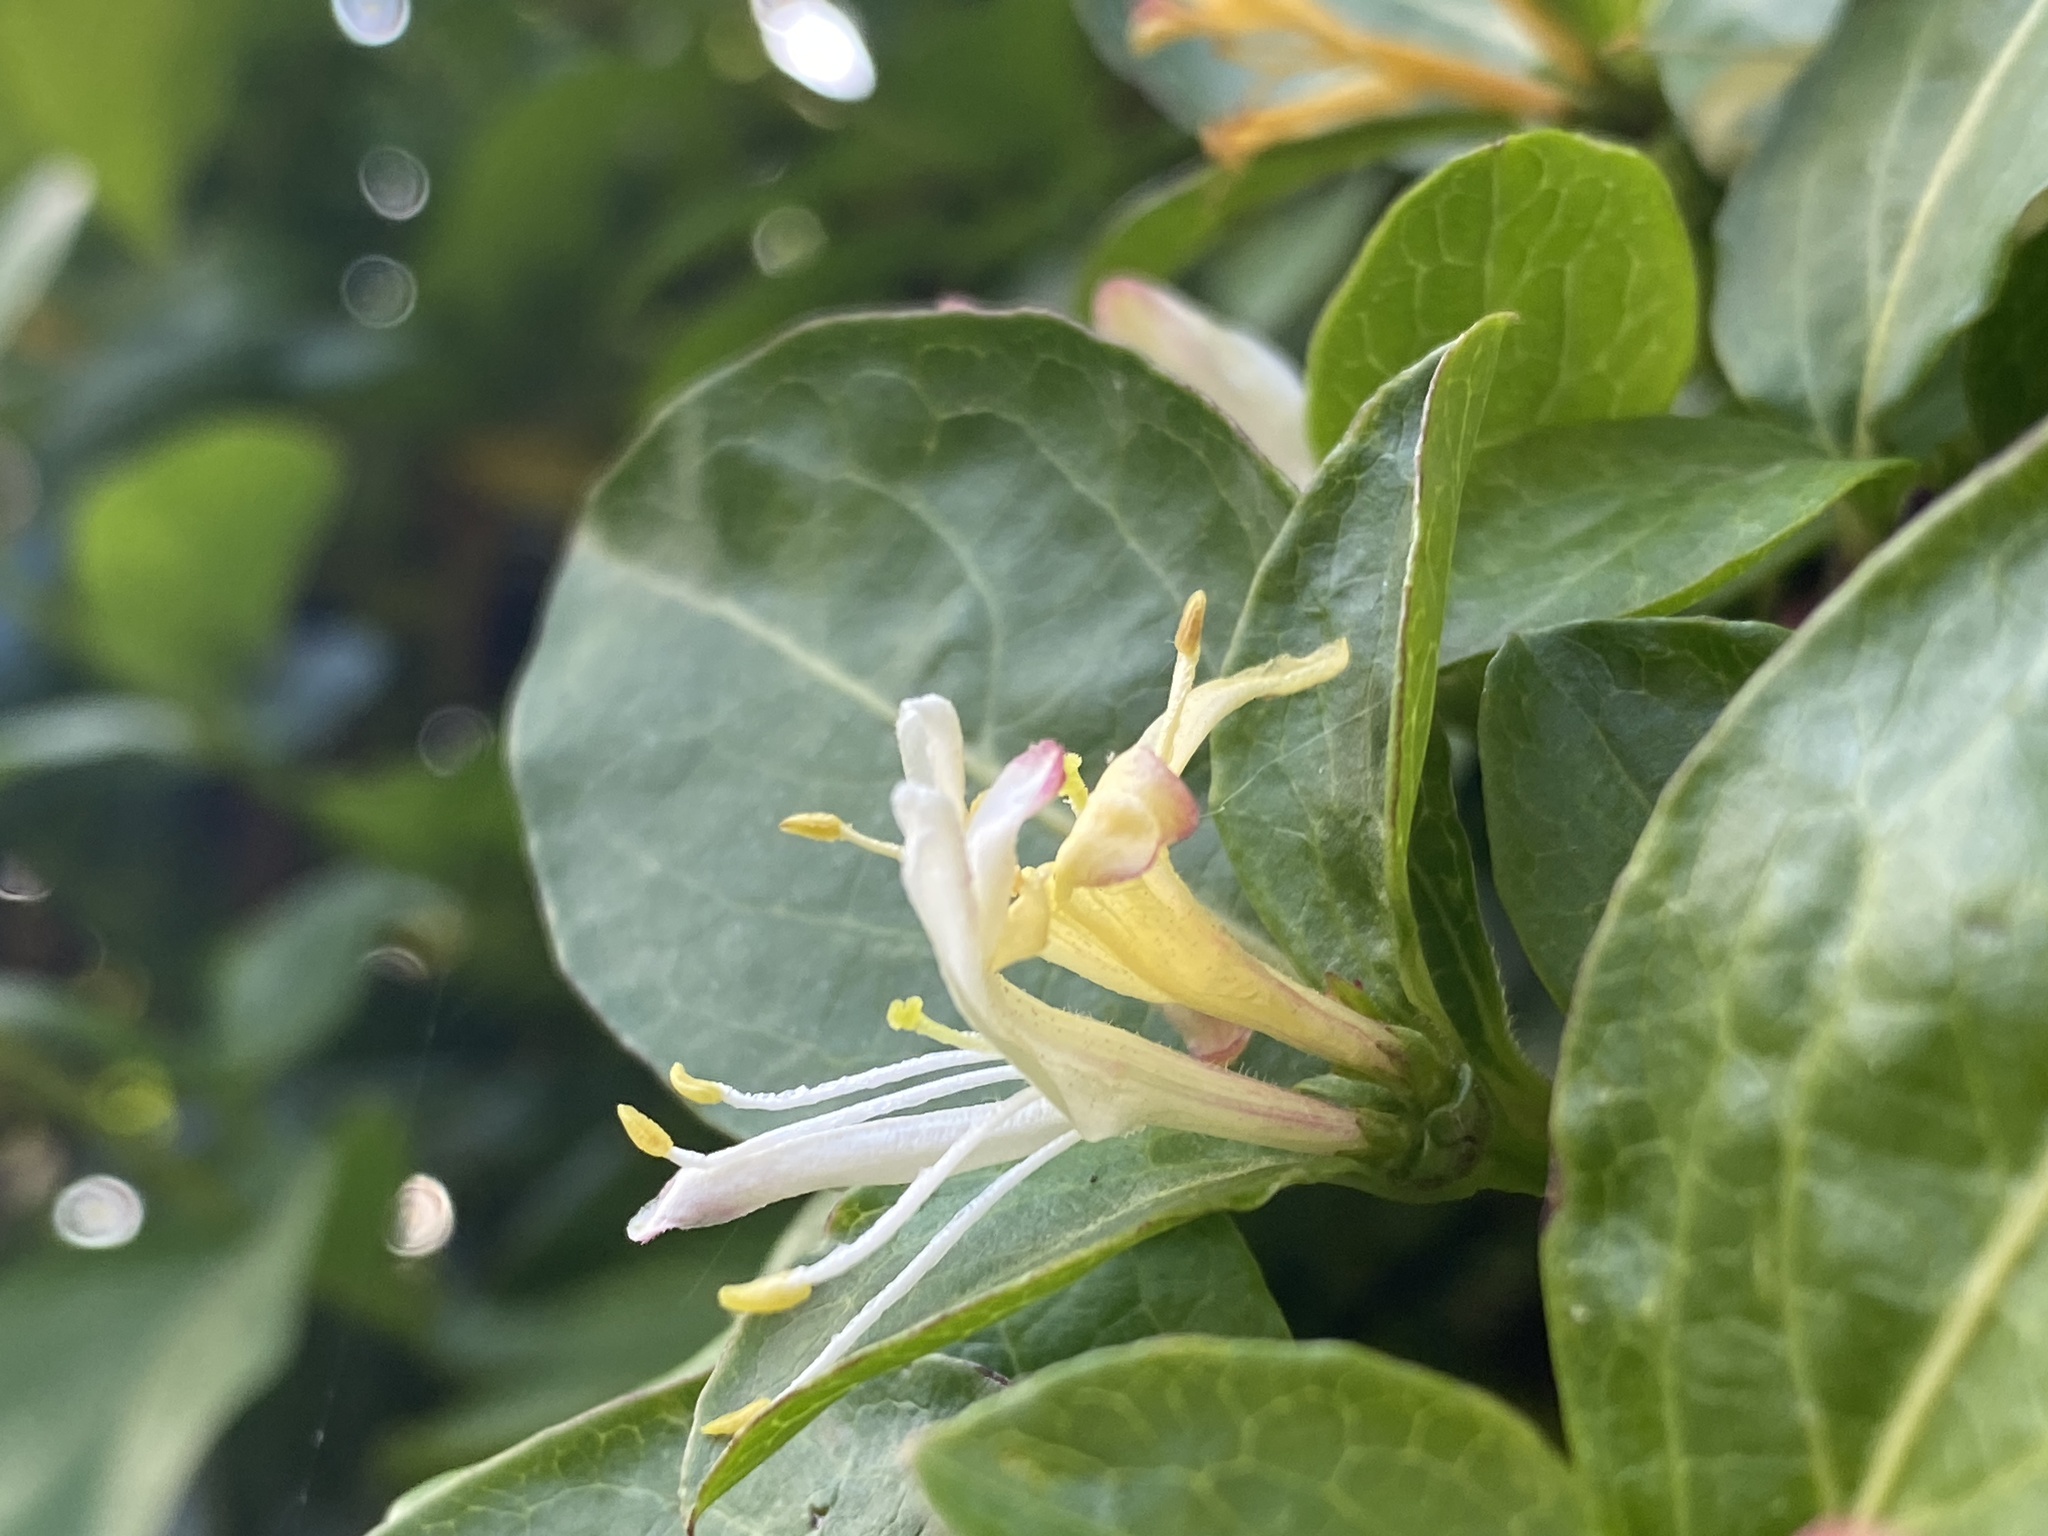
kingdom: Plantae
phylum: Tracheophyta
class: Magnoliopsida
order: Dipsacales
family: Caprifoliaceae
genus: Lonicera
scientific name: Lonicera japonica
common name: Japanese honeysuckle
